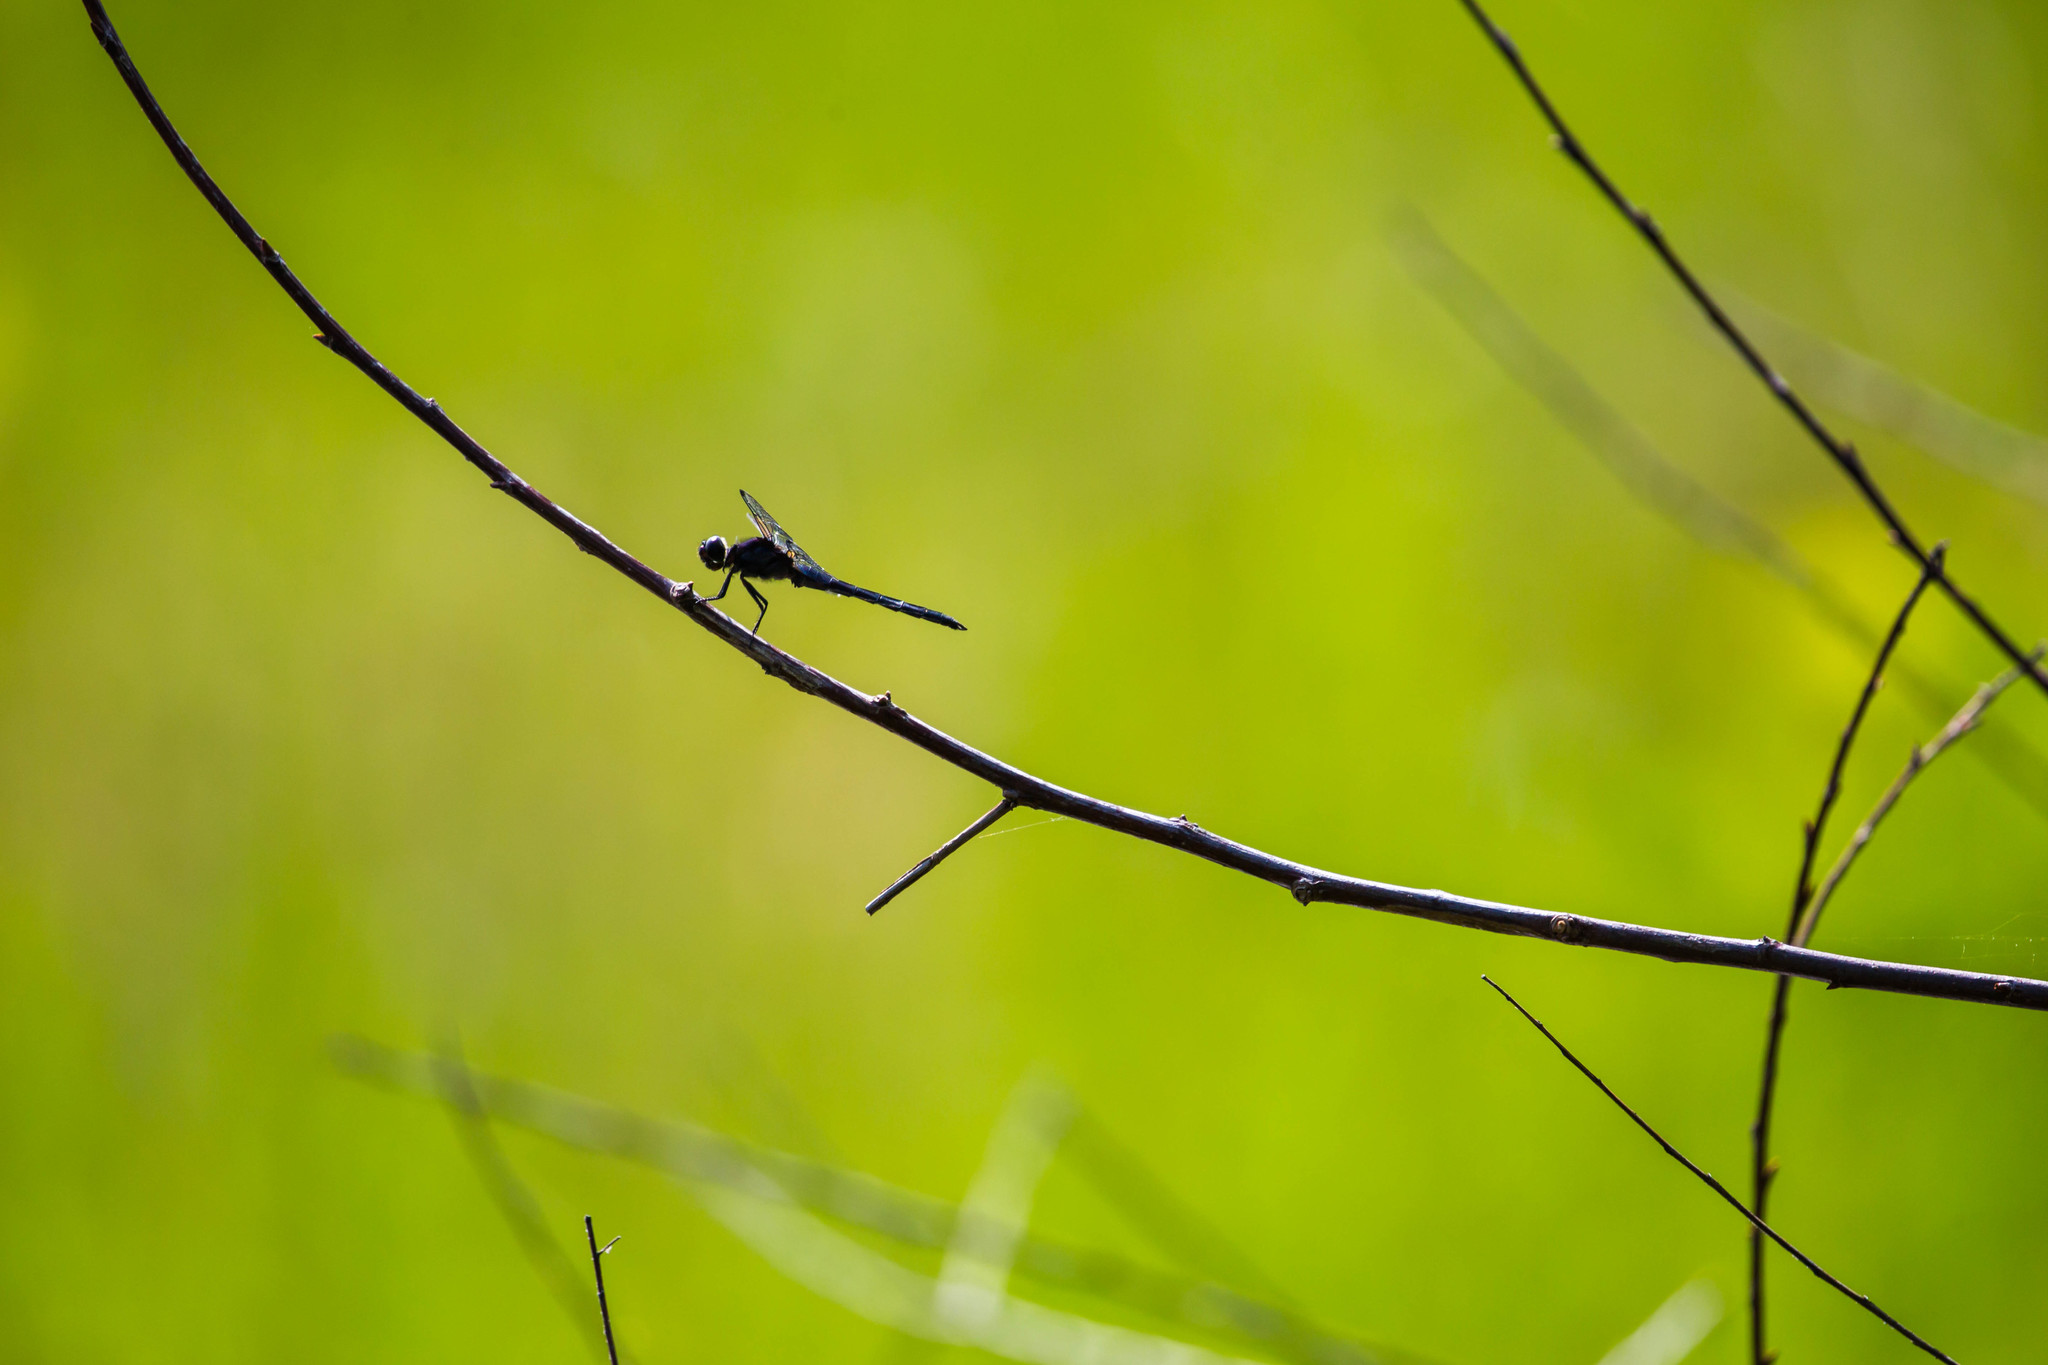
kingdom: Animalia
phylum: Arthropoda
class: Insecta
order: Odonata
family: Libellulidae
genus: Libellula
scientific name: Libellula incesta
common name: Slaty skimmer
